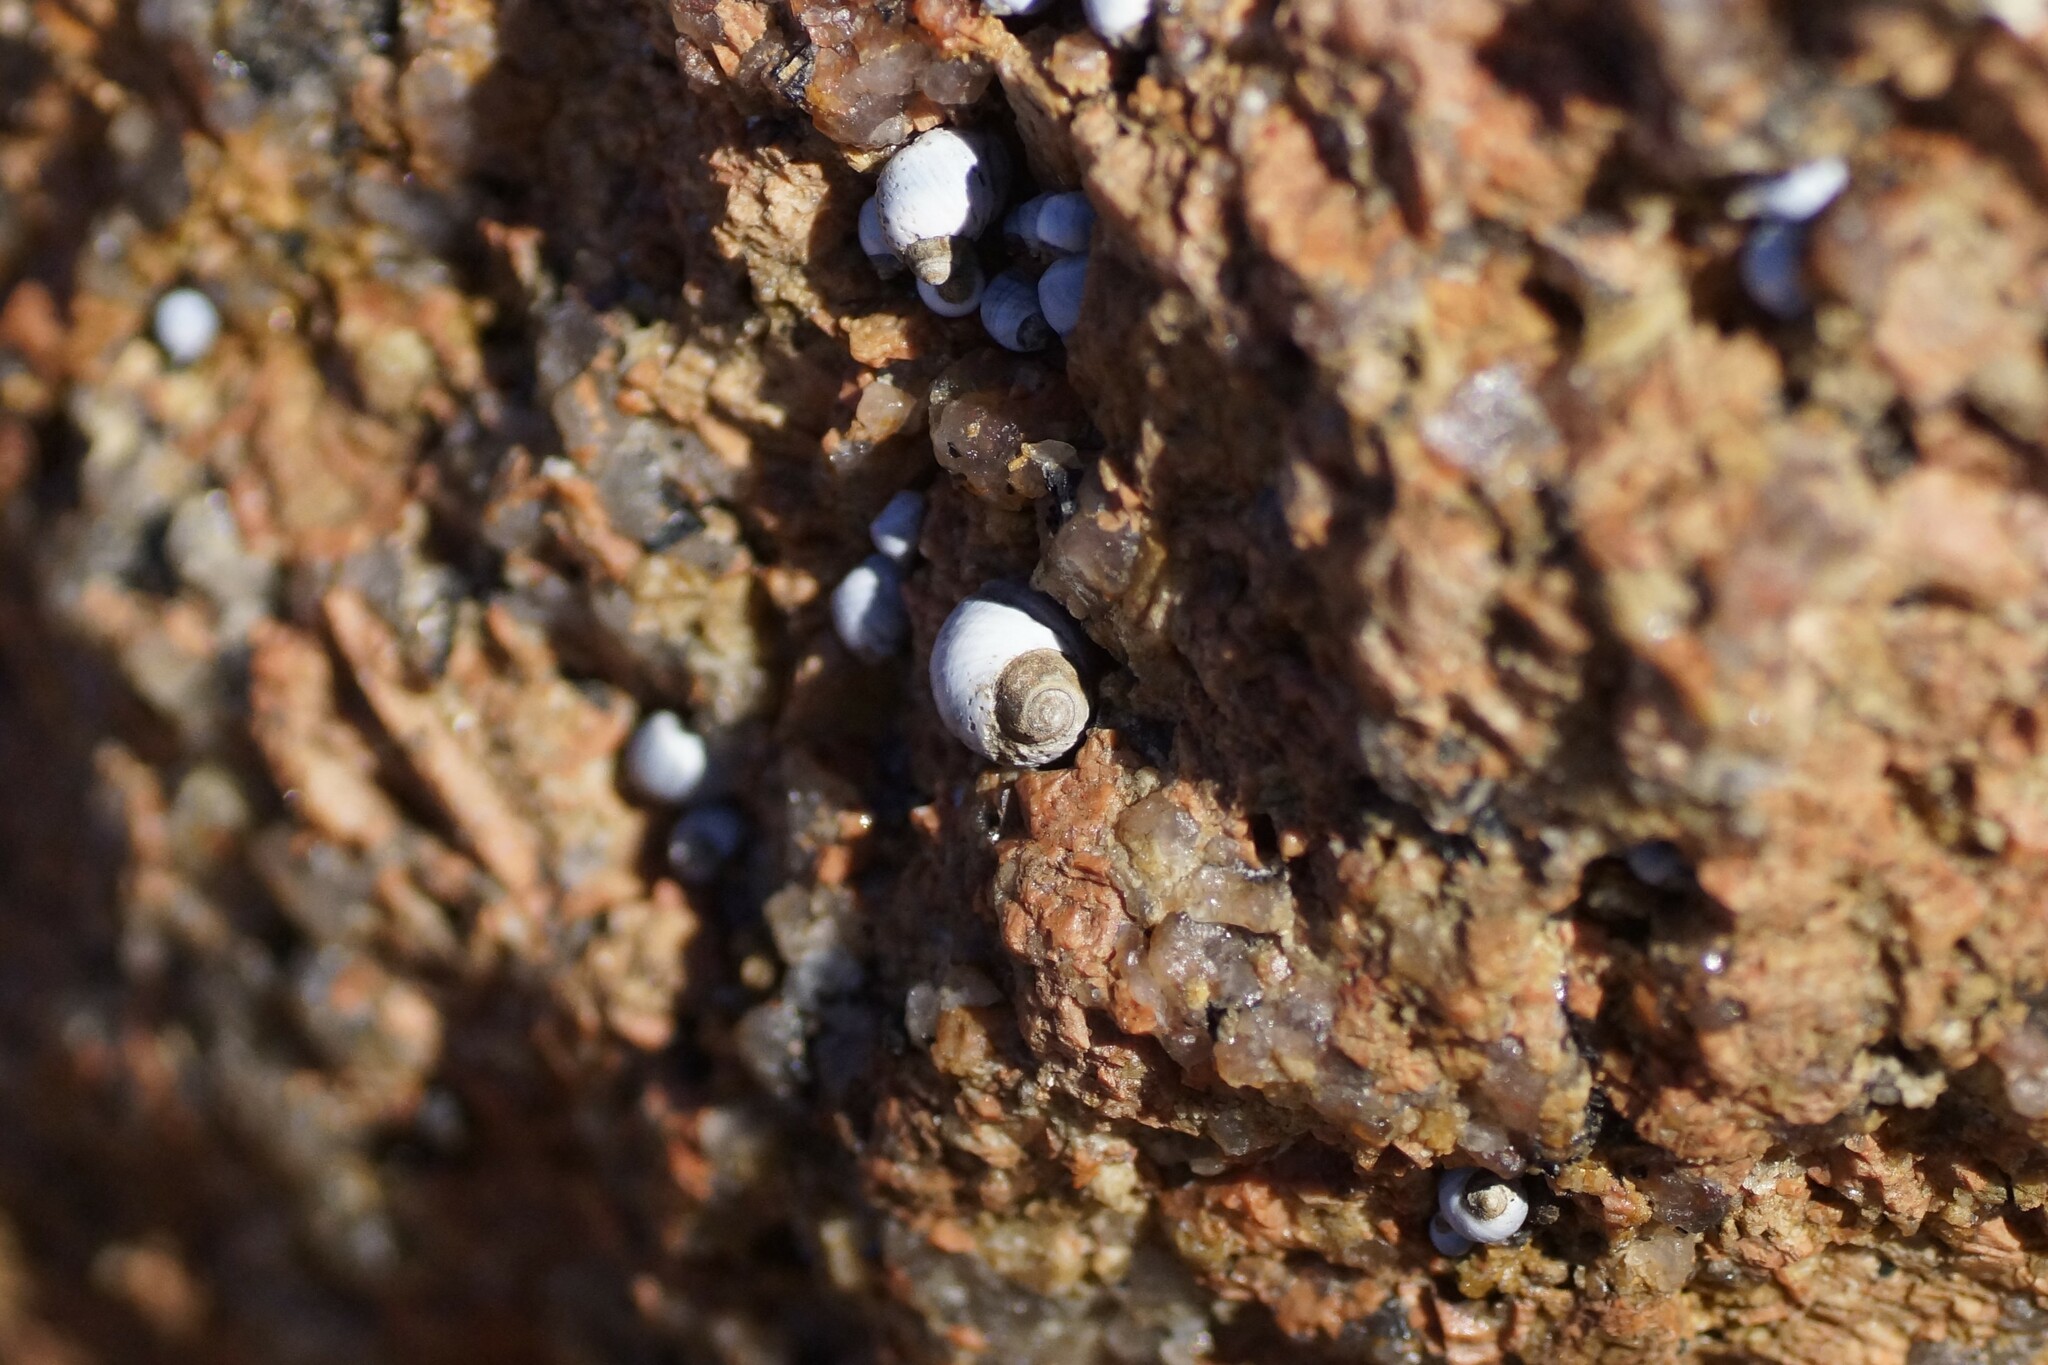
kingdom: Animalia
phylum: Mollusca
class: Gastropoda
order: Littorinimorpha
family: Littorinidae
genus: Austrolittorina
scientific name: Austrolittorina unifasciata
